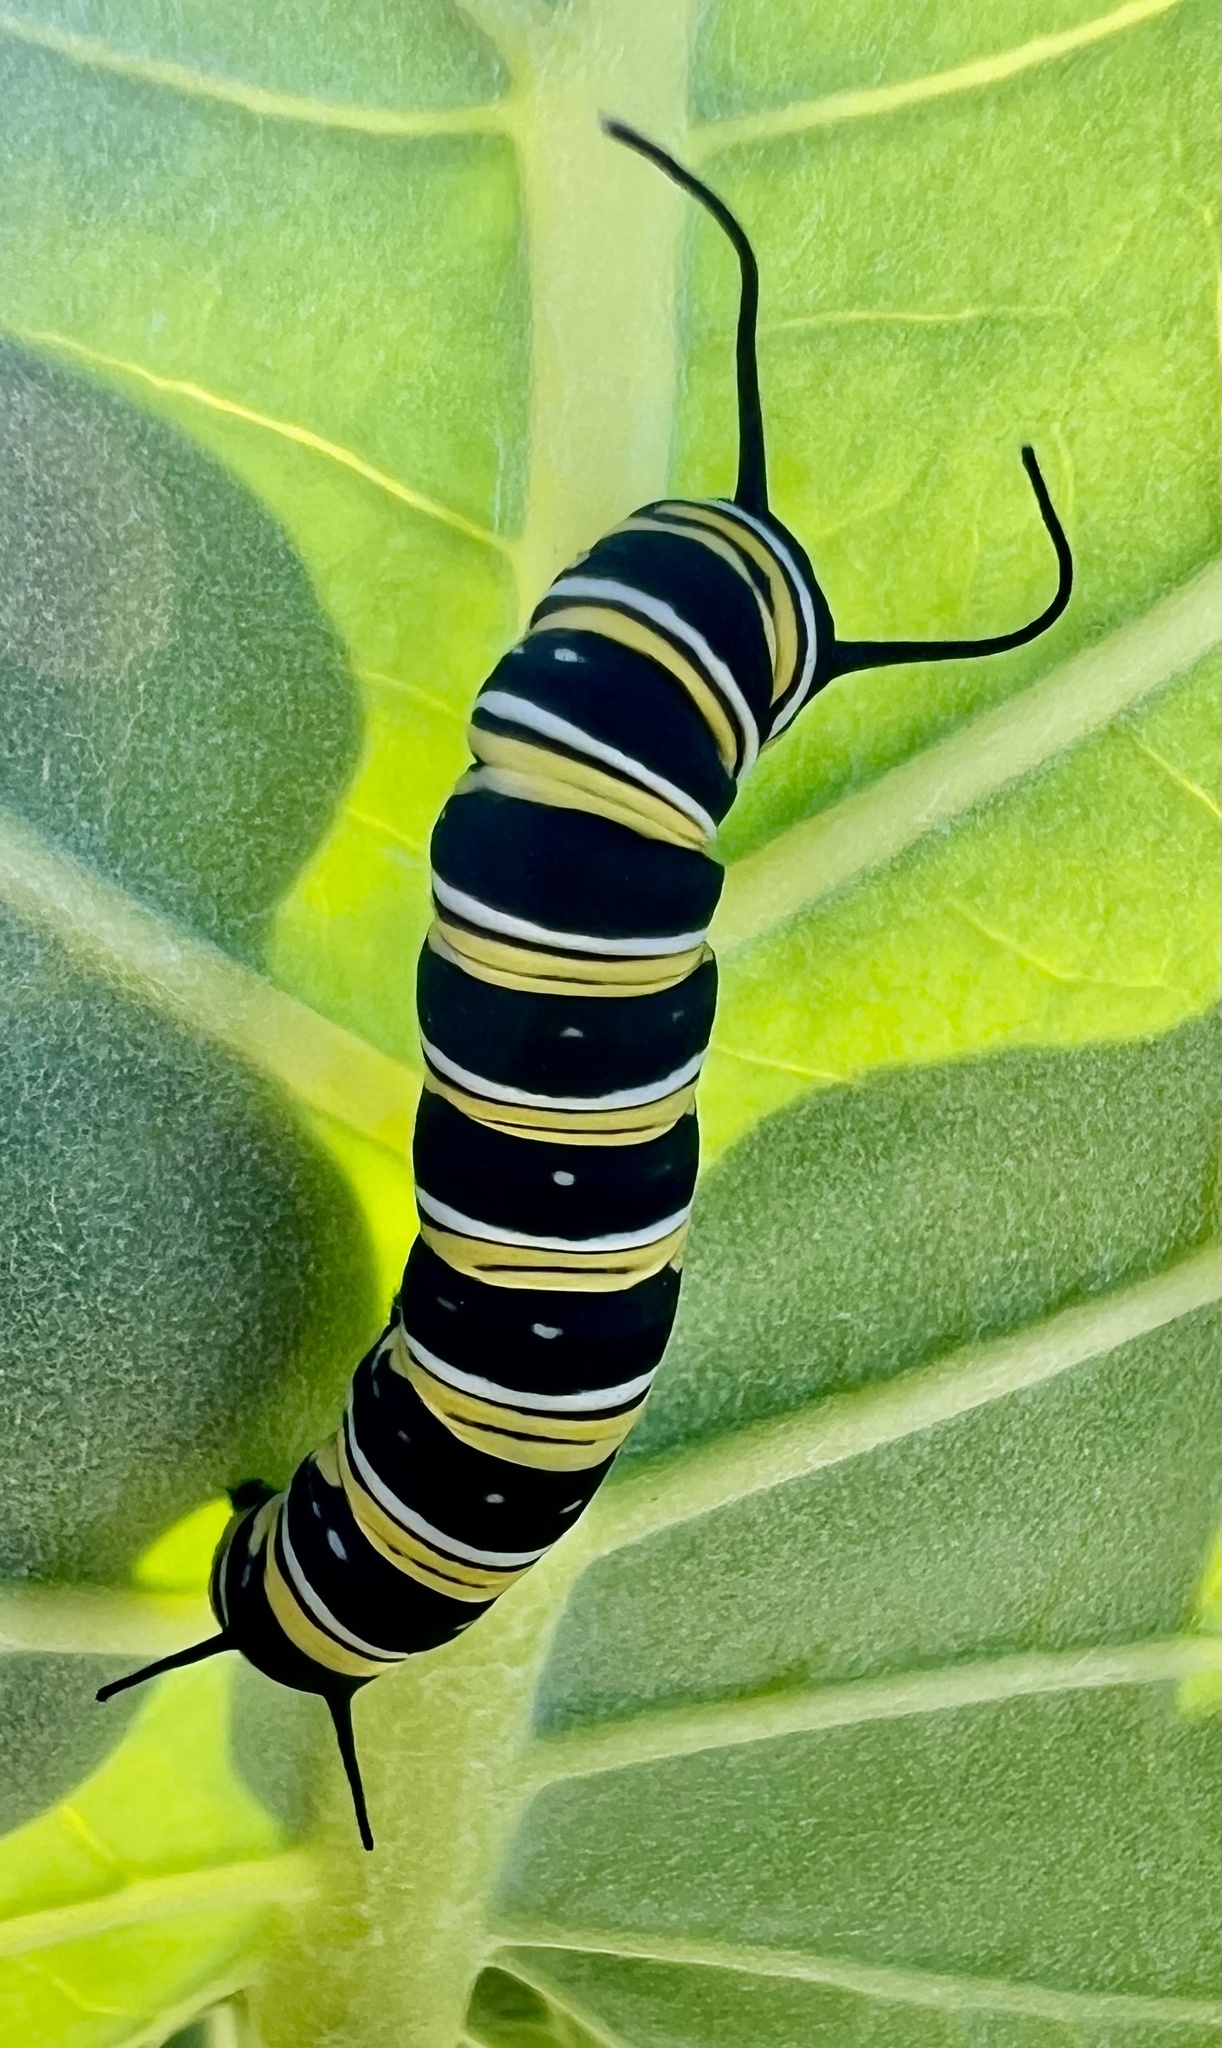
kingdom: Animalia
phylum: Arthropoda
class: Insecta
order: Lepidoptera
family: Nymphalidae
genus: Danaus
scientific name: Danaus plexippus
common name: Monarch
